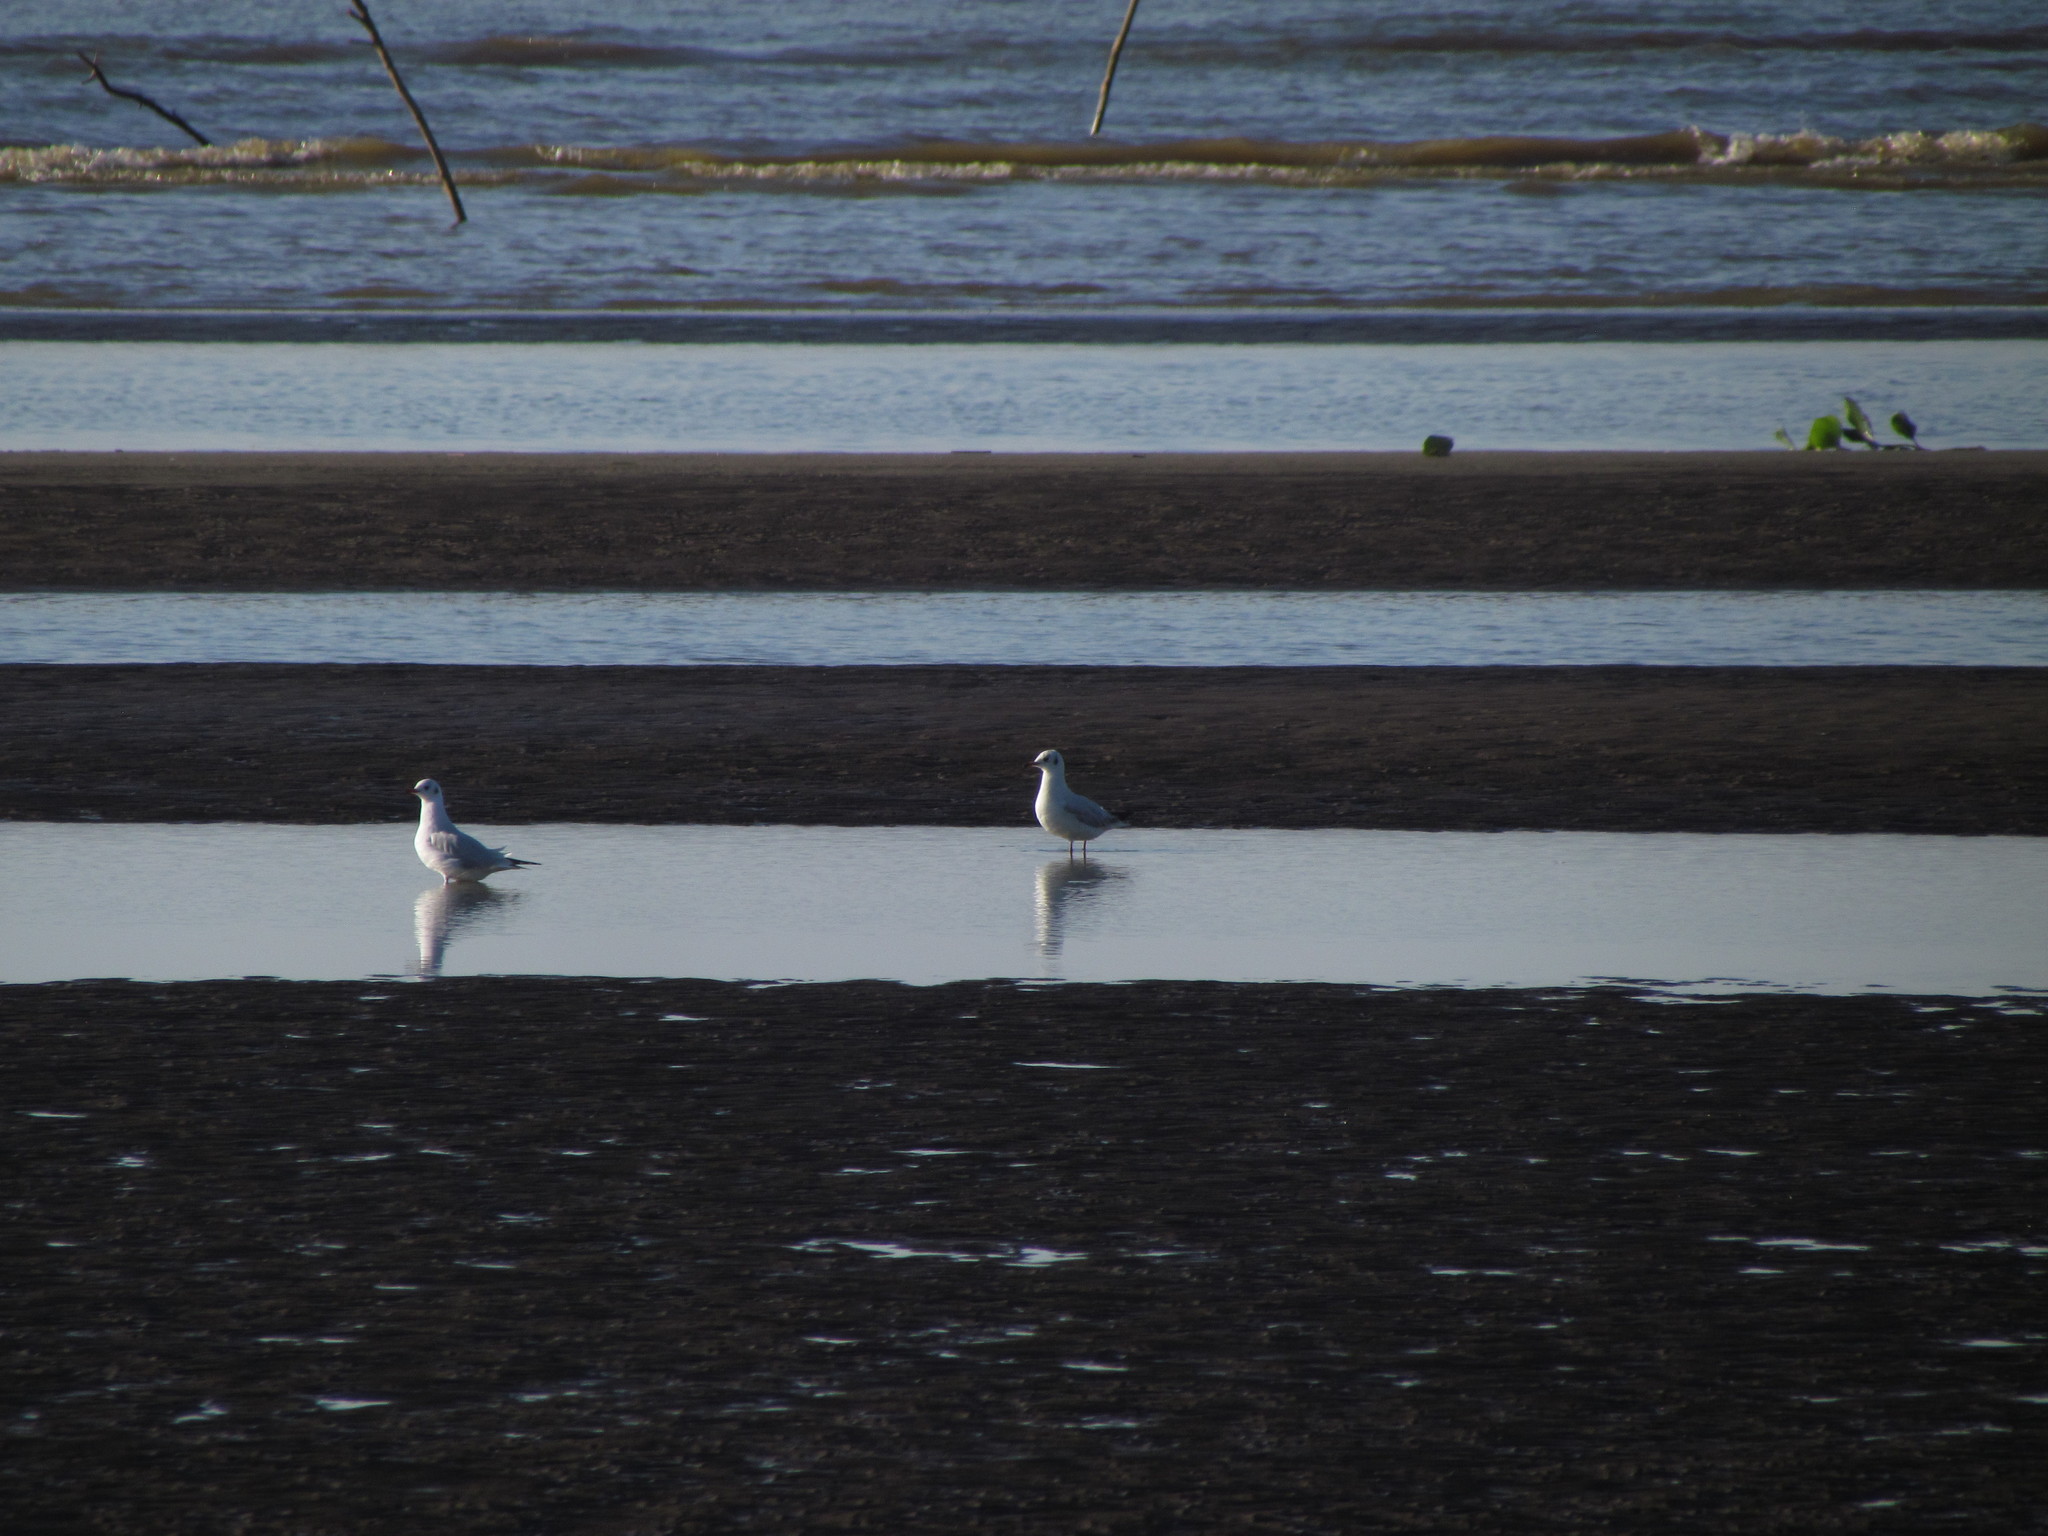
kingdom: Animalia
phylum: Chordata
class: Aves
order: Charadriiformes
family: Laridae
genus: Chroicocephalus
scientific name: Chroicocephalus maculipennis
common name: Brown-hooded gull
